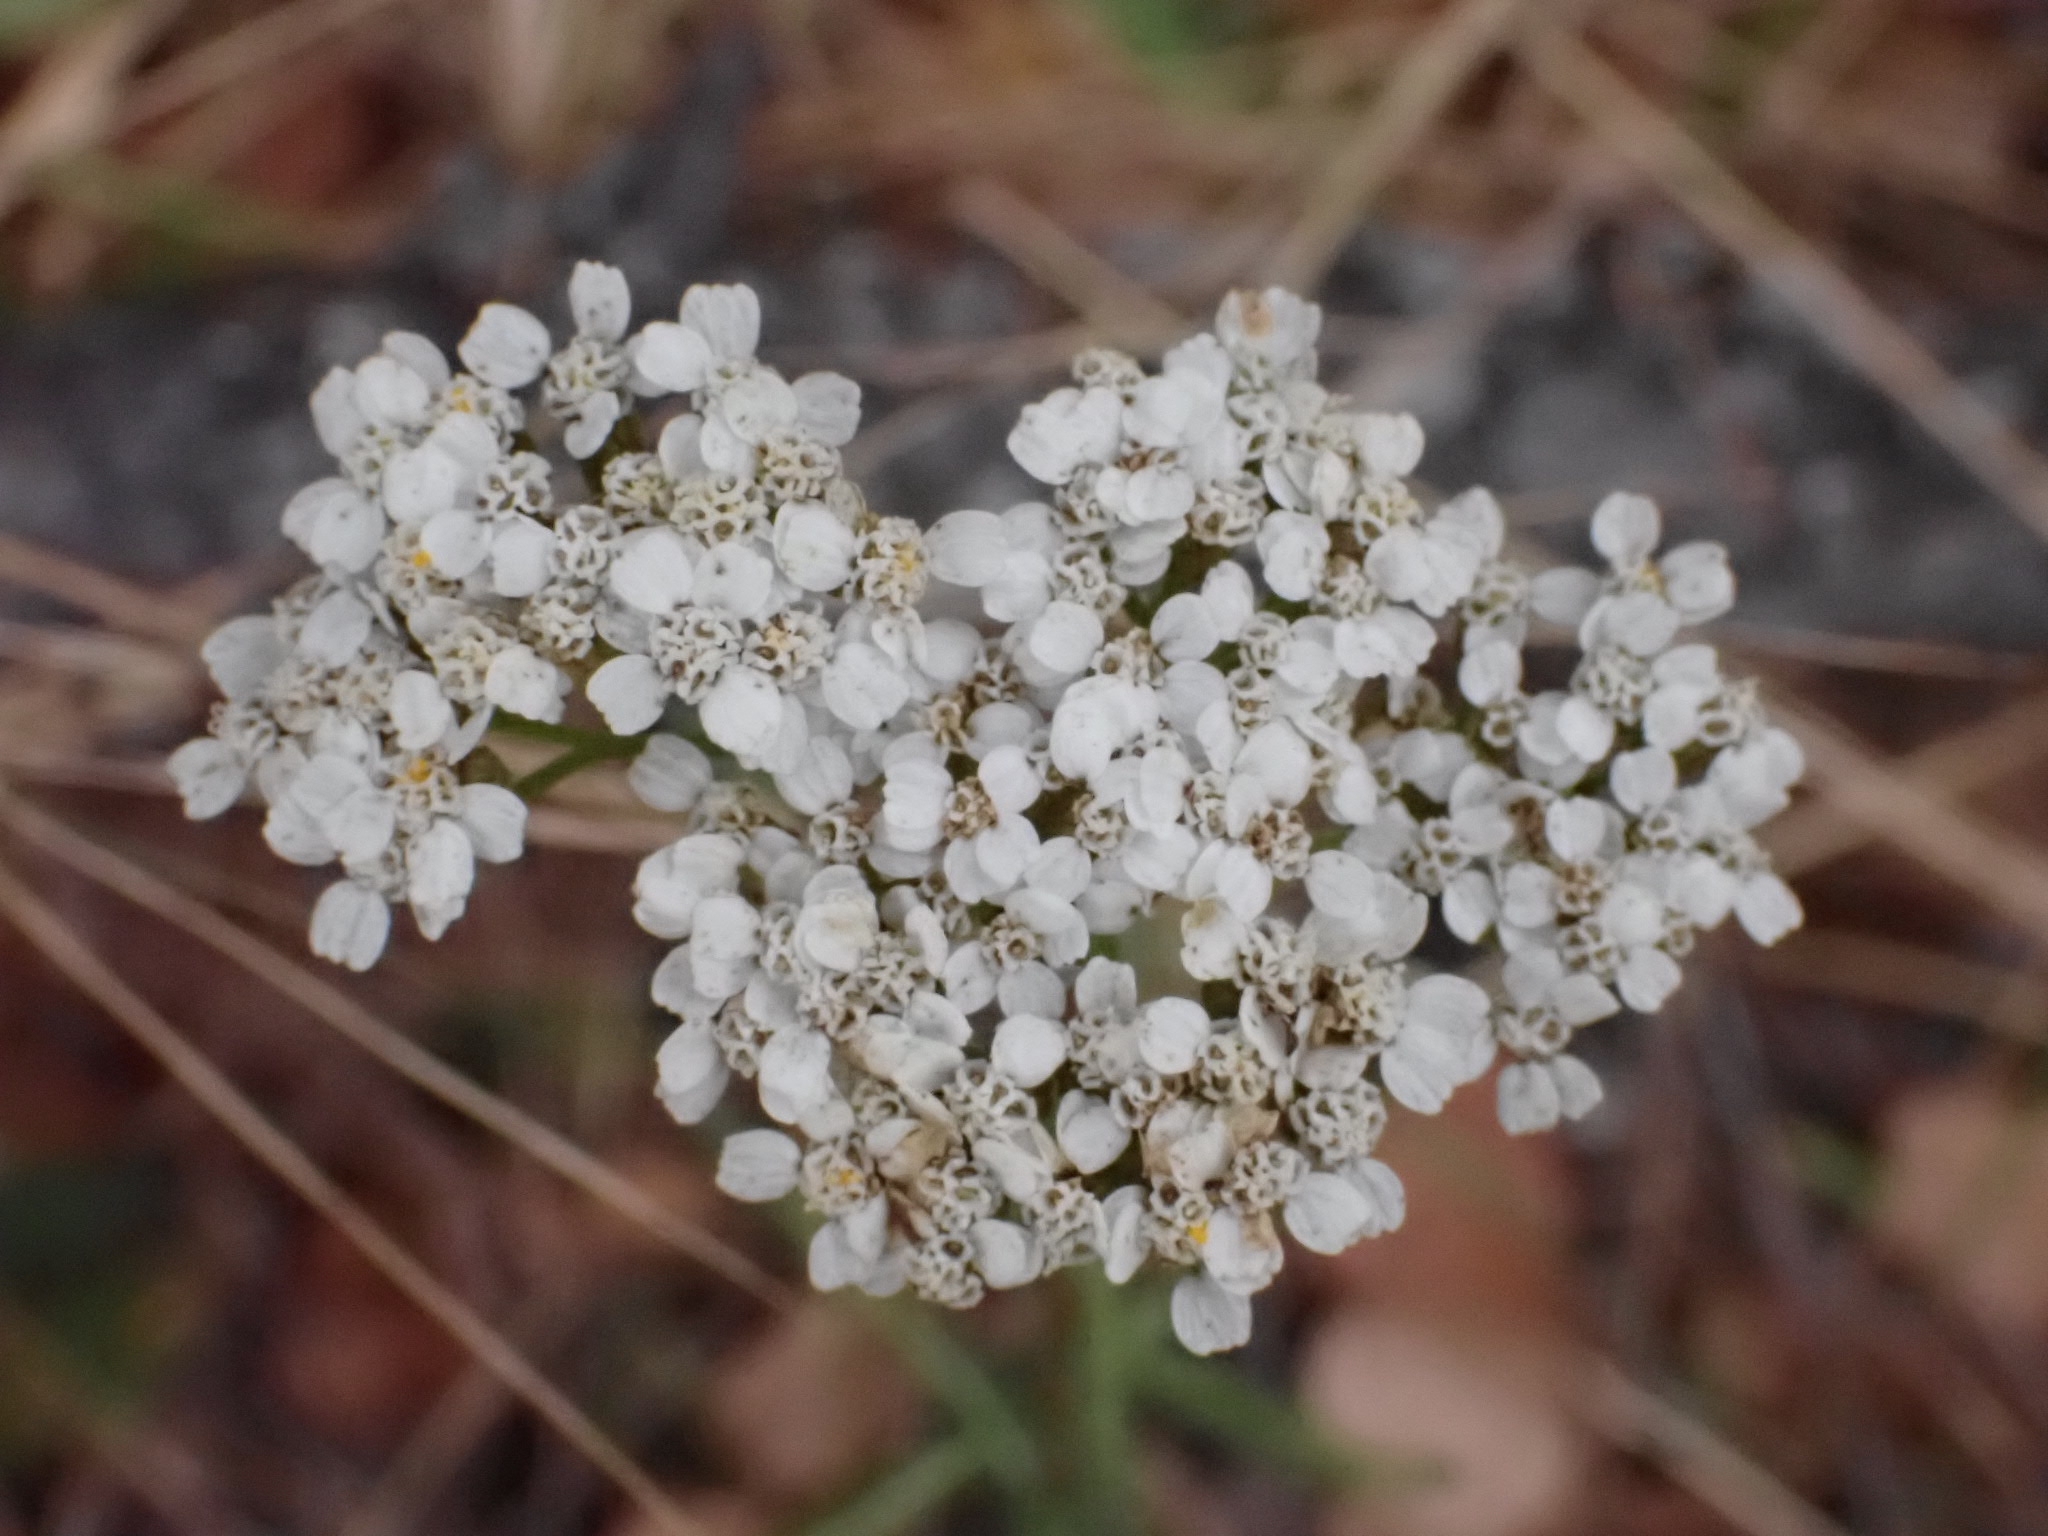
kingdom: Plantae
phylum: Tracheophyta
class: Magnoliopsida
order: Asterales
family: Asteraceae
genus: Achillea
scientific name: Achillea millefolium
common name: Yarrow
